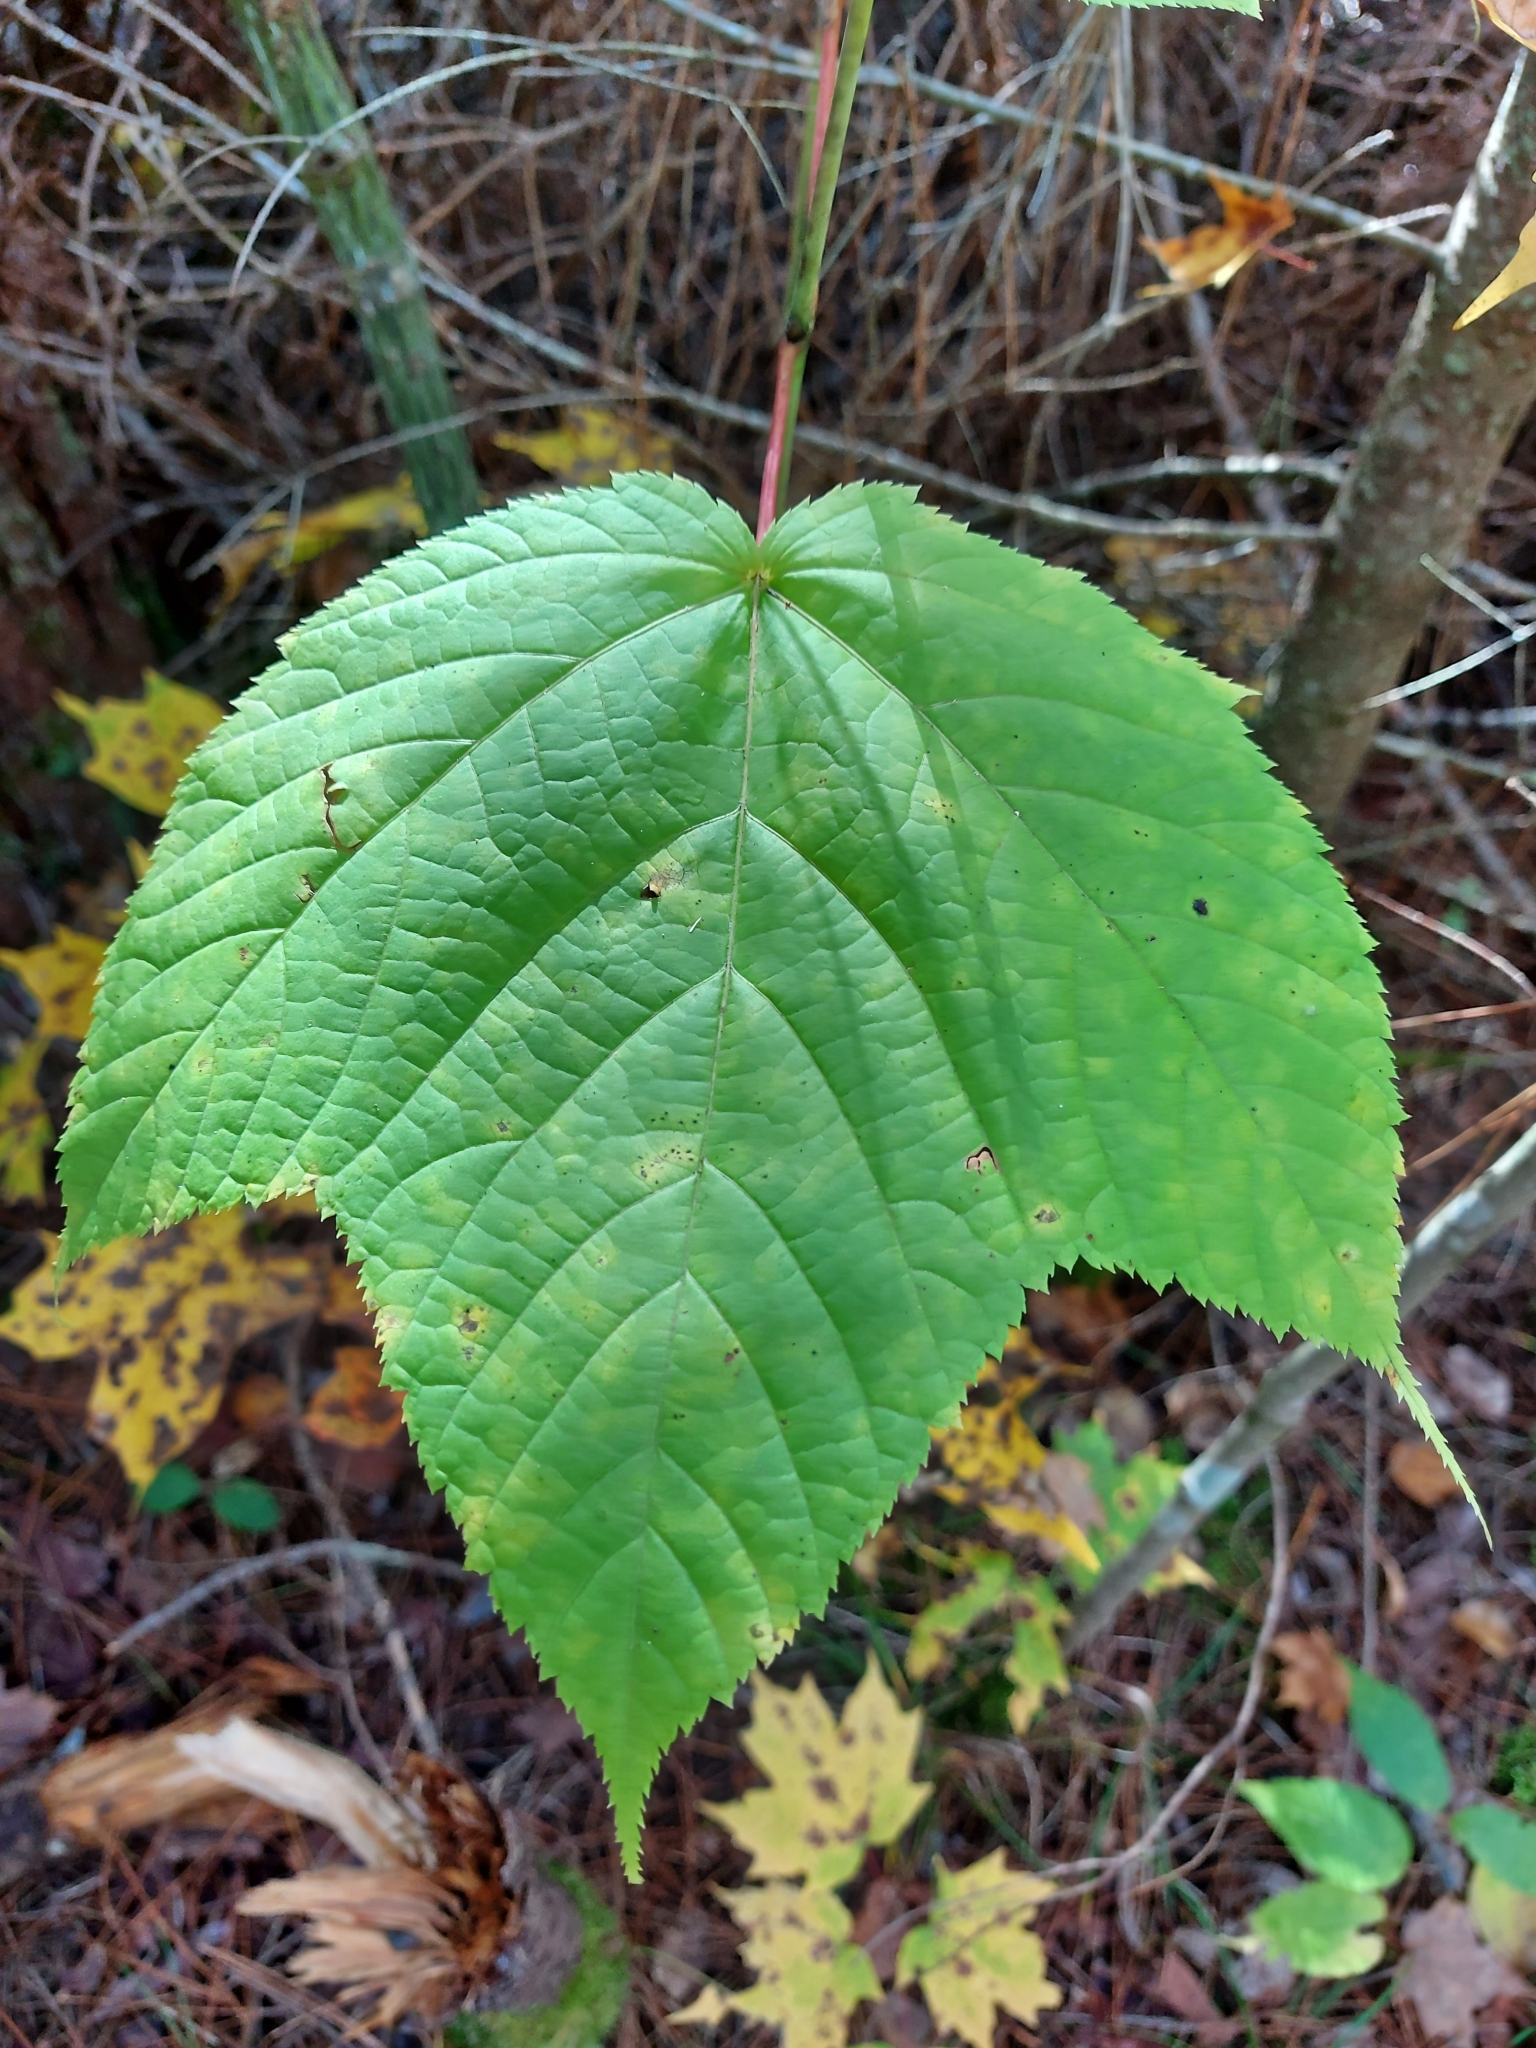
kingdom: Plantae
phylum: Tracheophyta
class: Magnoliopsida
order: Sapindales
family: Sapindaceae
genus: Acer
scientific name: Acer pensylvanicum
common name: Moosewood
